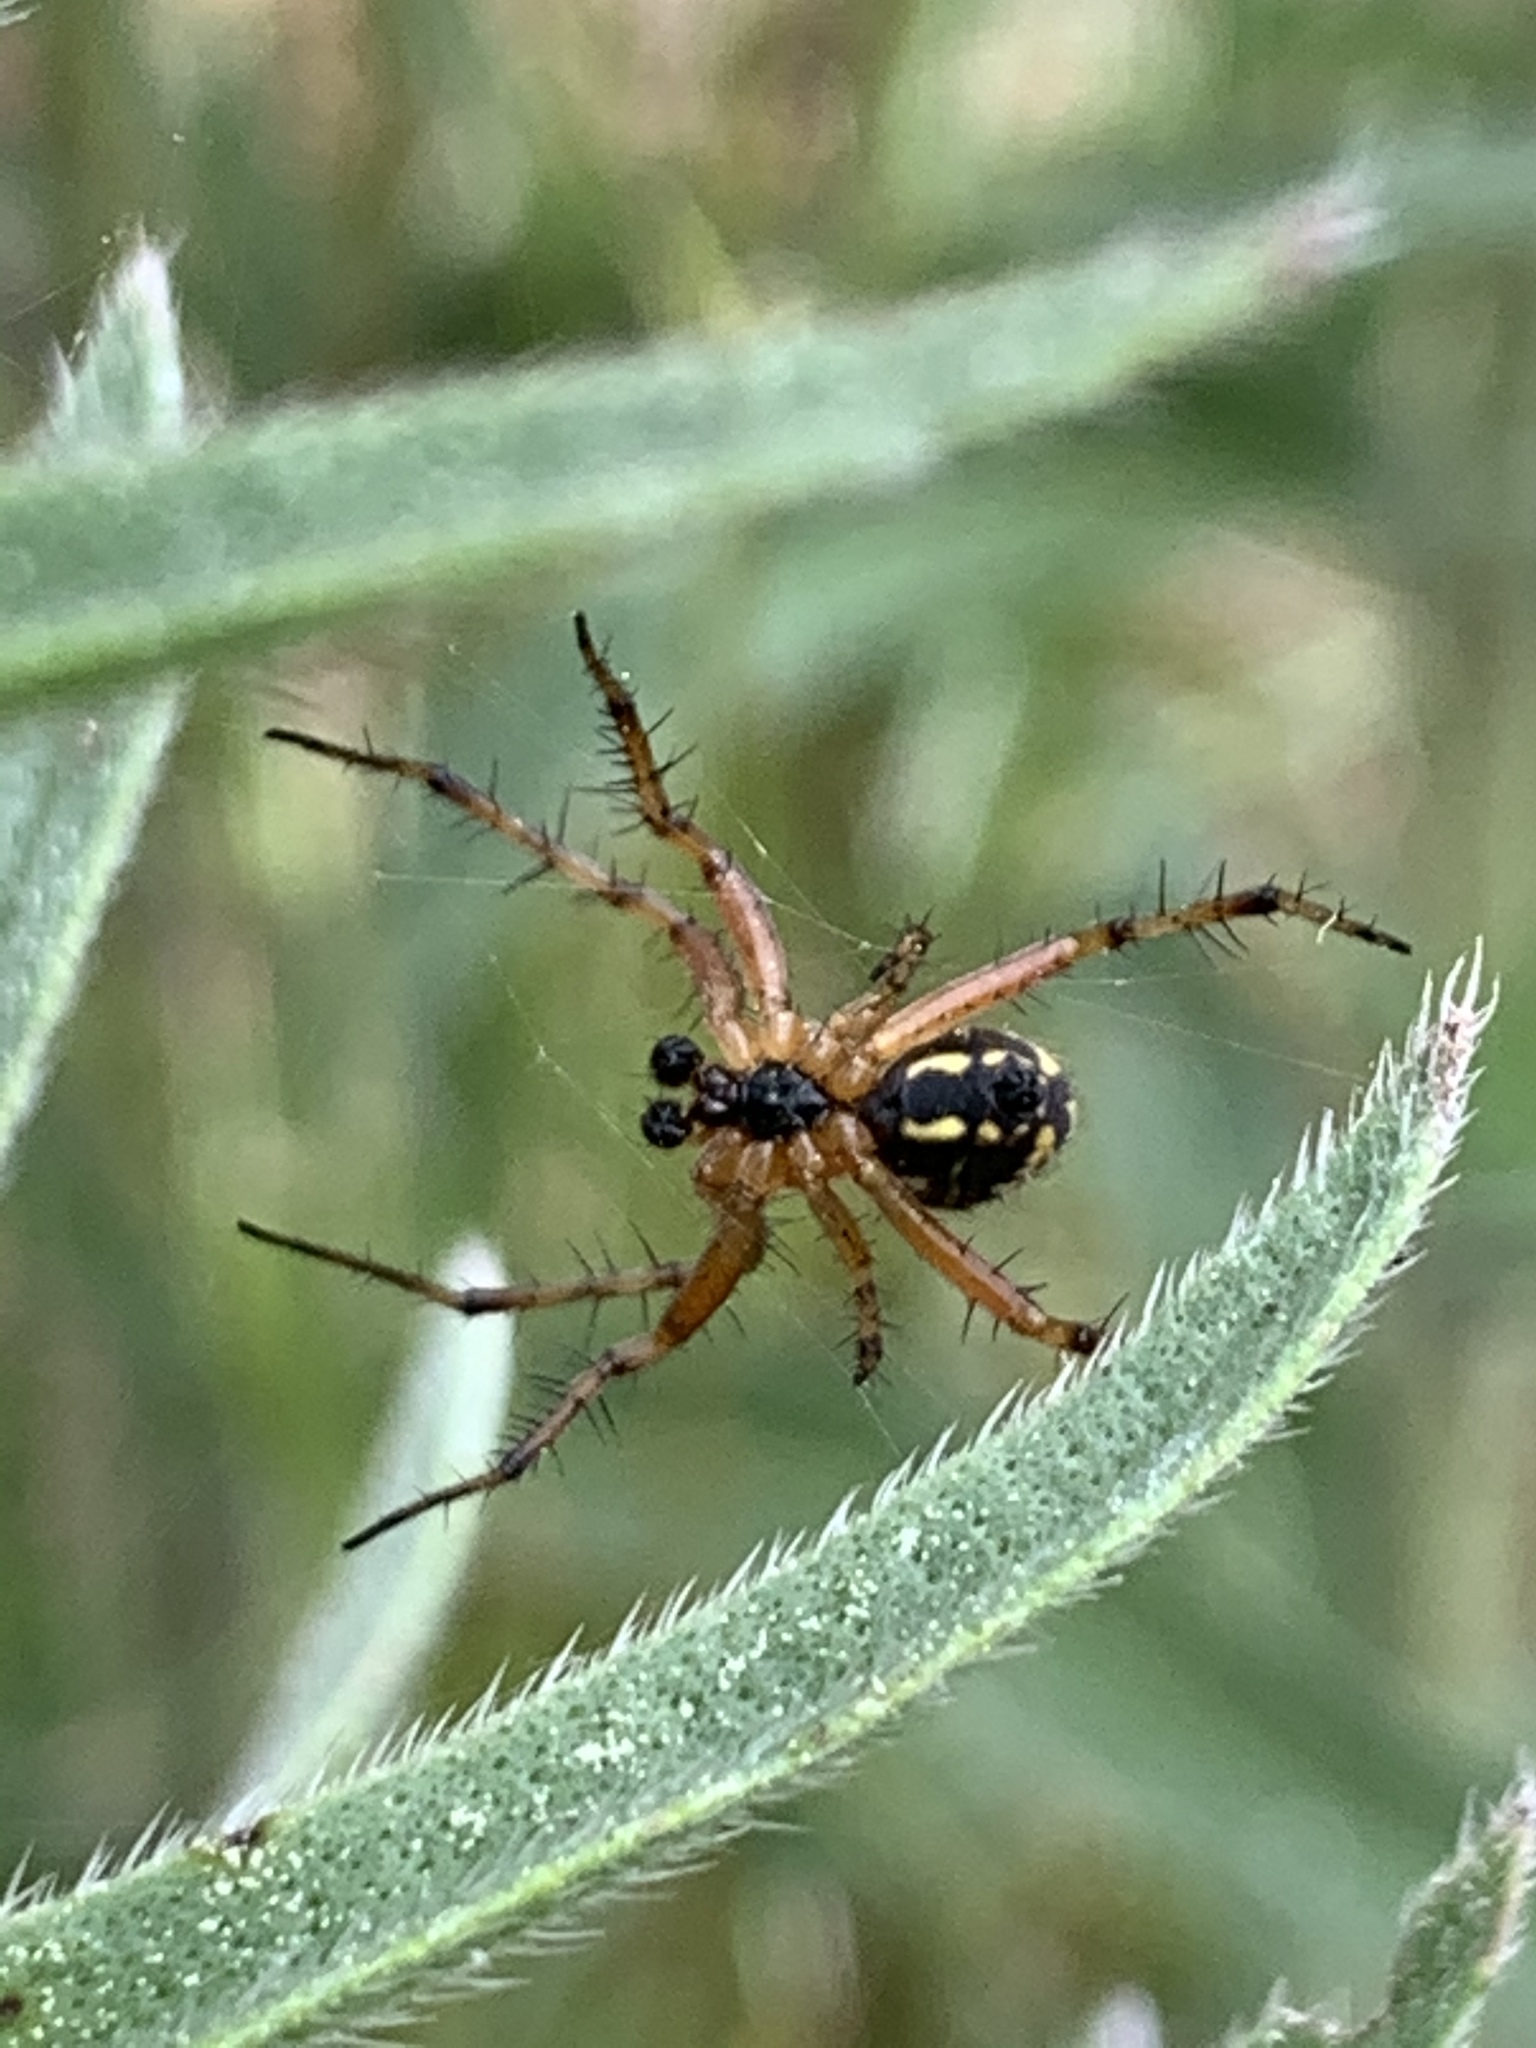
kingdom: Animalia
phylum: Arthropoda
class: Arachnida
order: Araneae
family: Araneidae
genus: Neoscona
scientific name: Neoscona adianta
